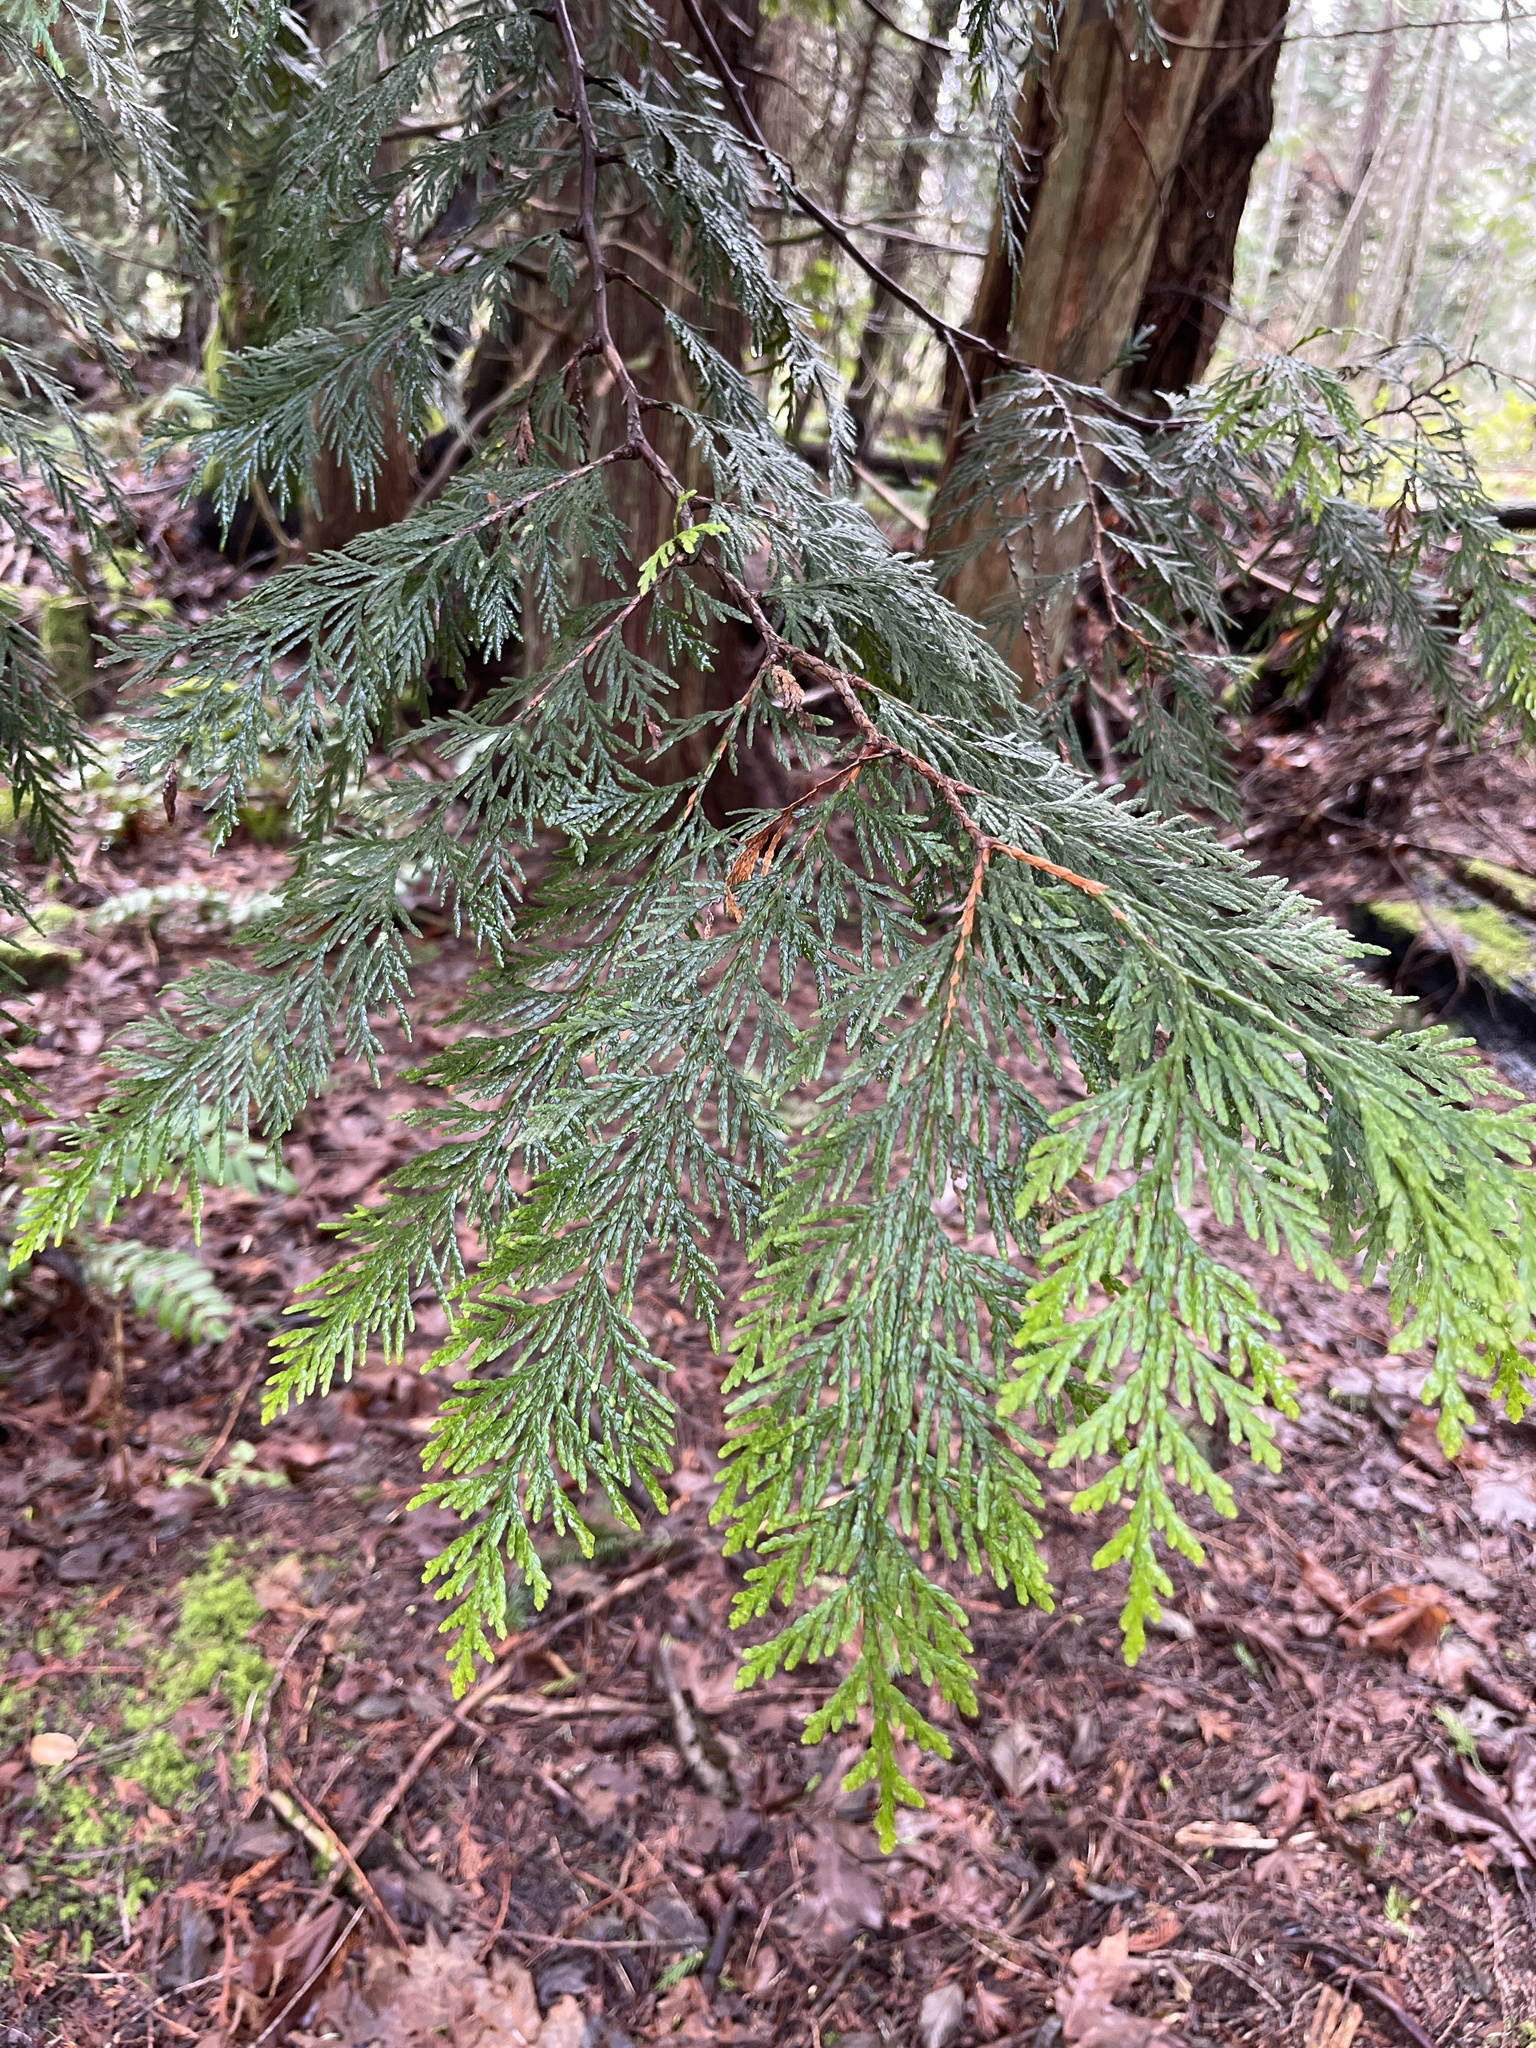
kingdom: Plantae
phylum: Tracheophyta
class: Pinopsida
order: Pinales
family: Cupressaceae
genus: Thuja
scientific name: Thuja plicata
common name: Western red-cedar
